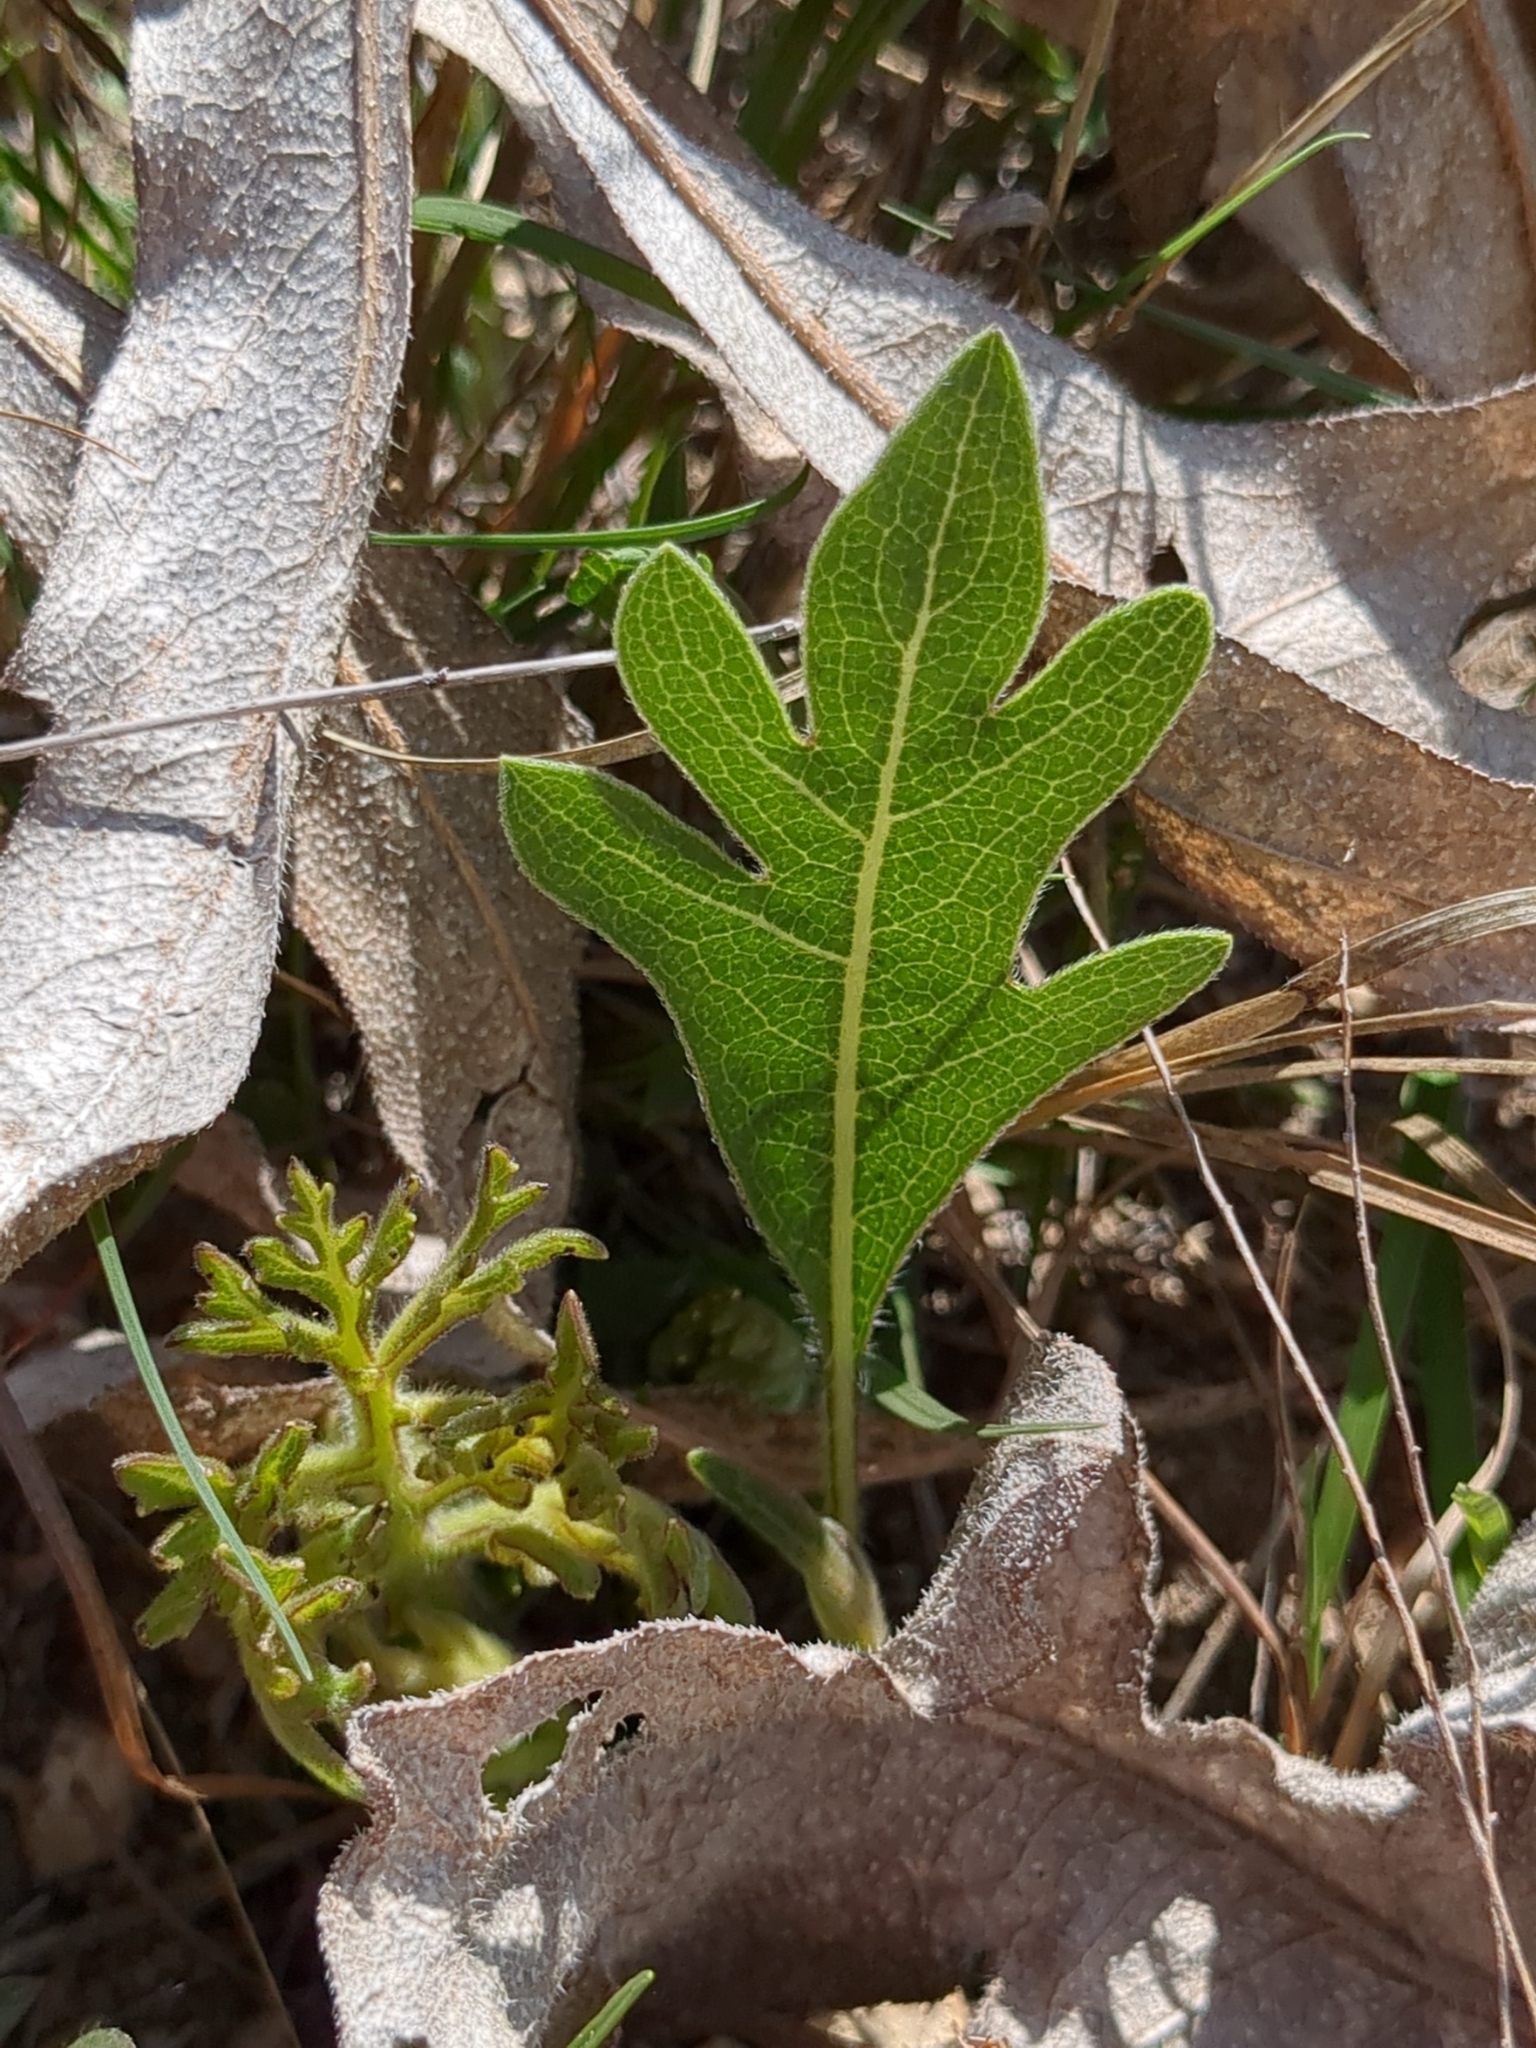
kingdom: Plantae
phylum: Tracheophyta
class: Magnoliopsida
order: Asterales
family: Asteraceae
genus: Silphium
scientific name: Silphium albiflorum
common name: White rosinweed
